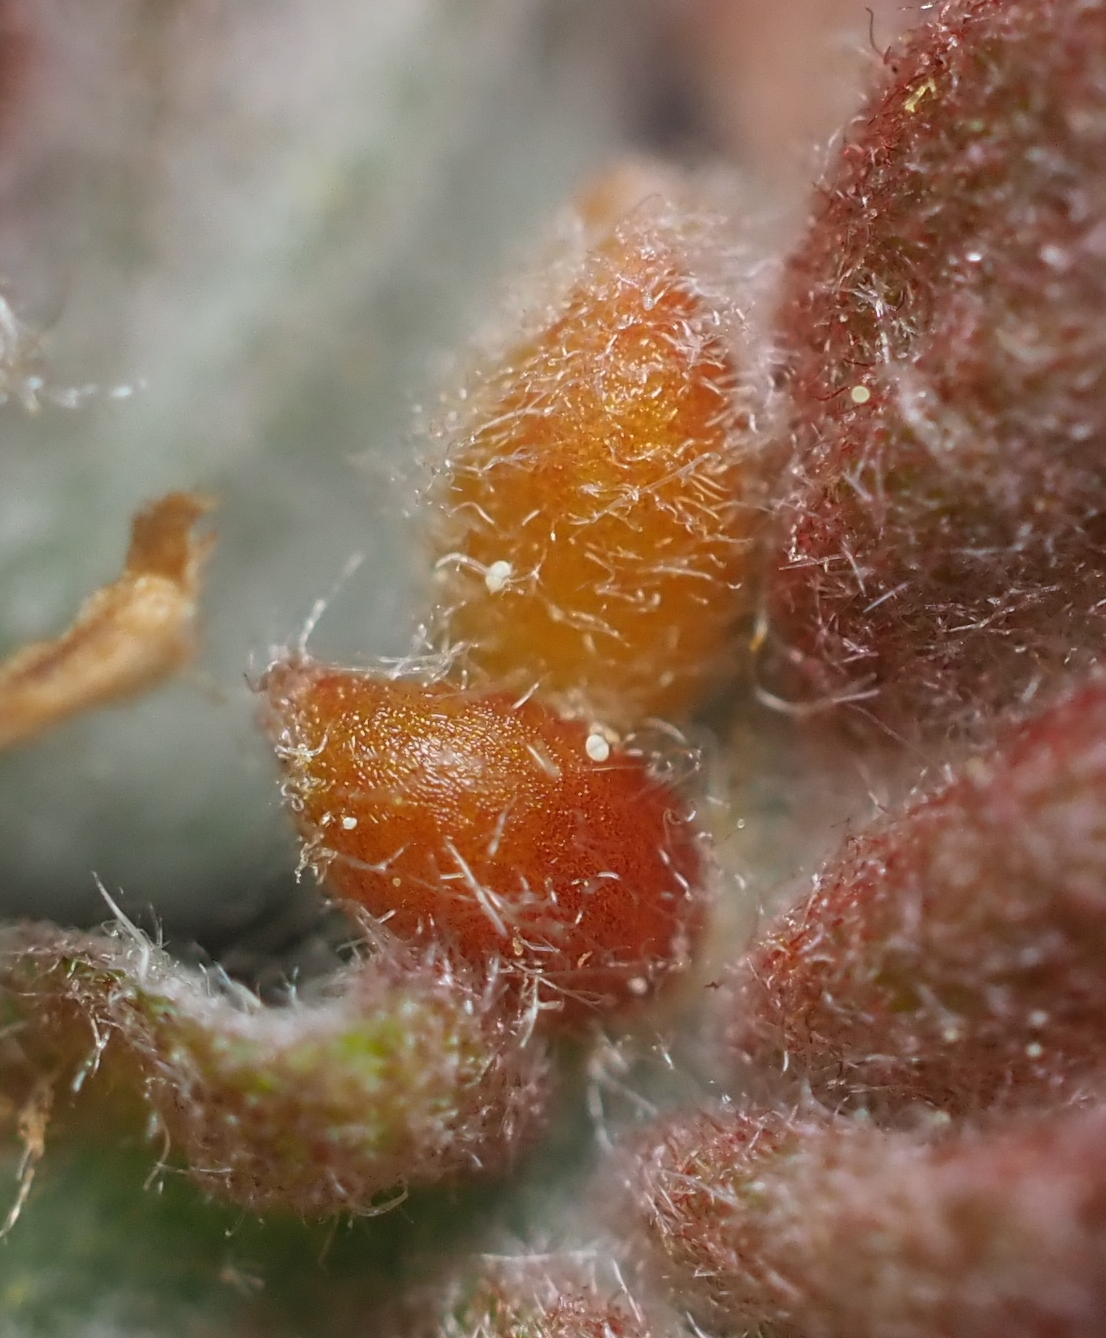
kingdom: Animalia
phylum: Arthropoda
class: Insecta
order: Hymenoptera
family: Cynipidae
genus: Neuroterus
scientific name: Neuroterus
